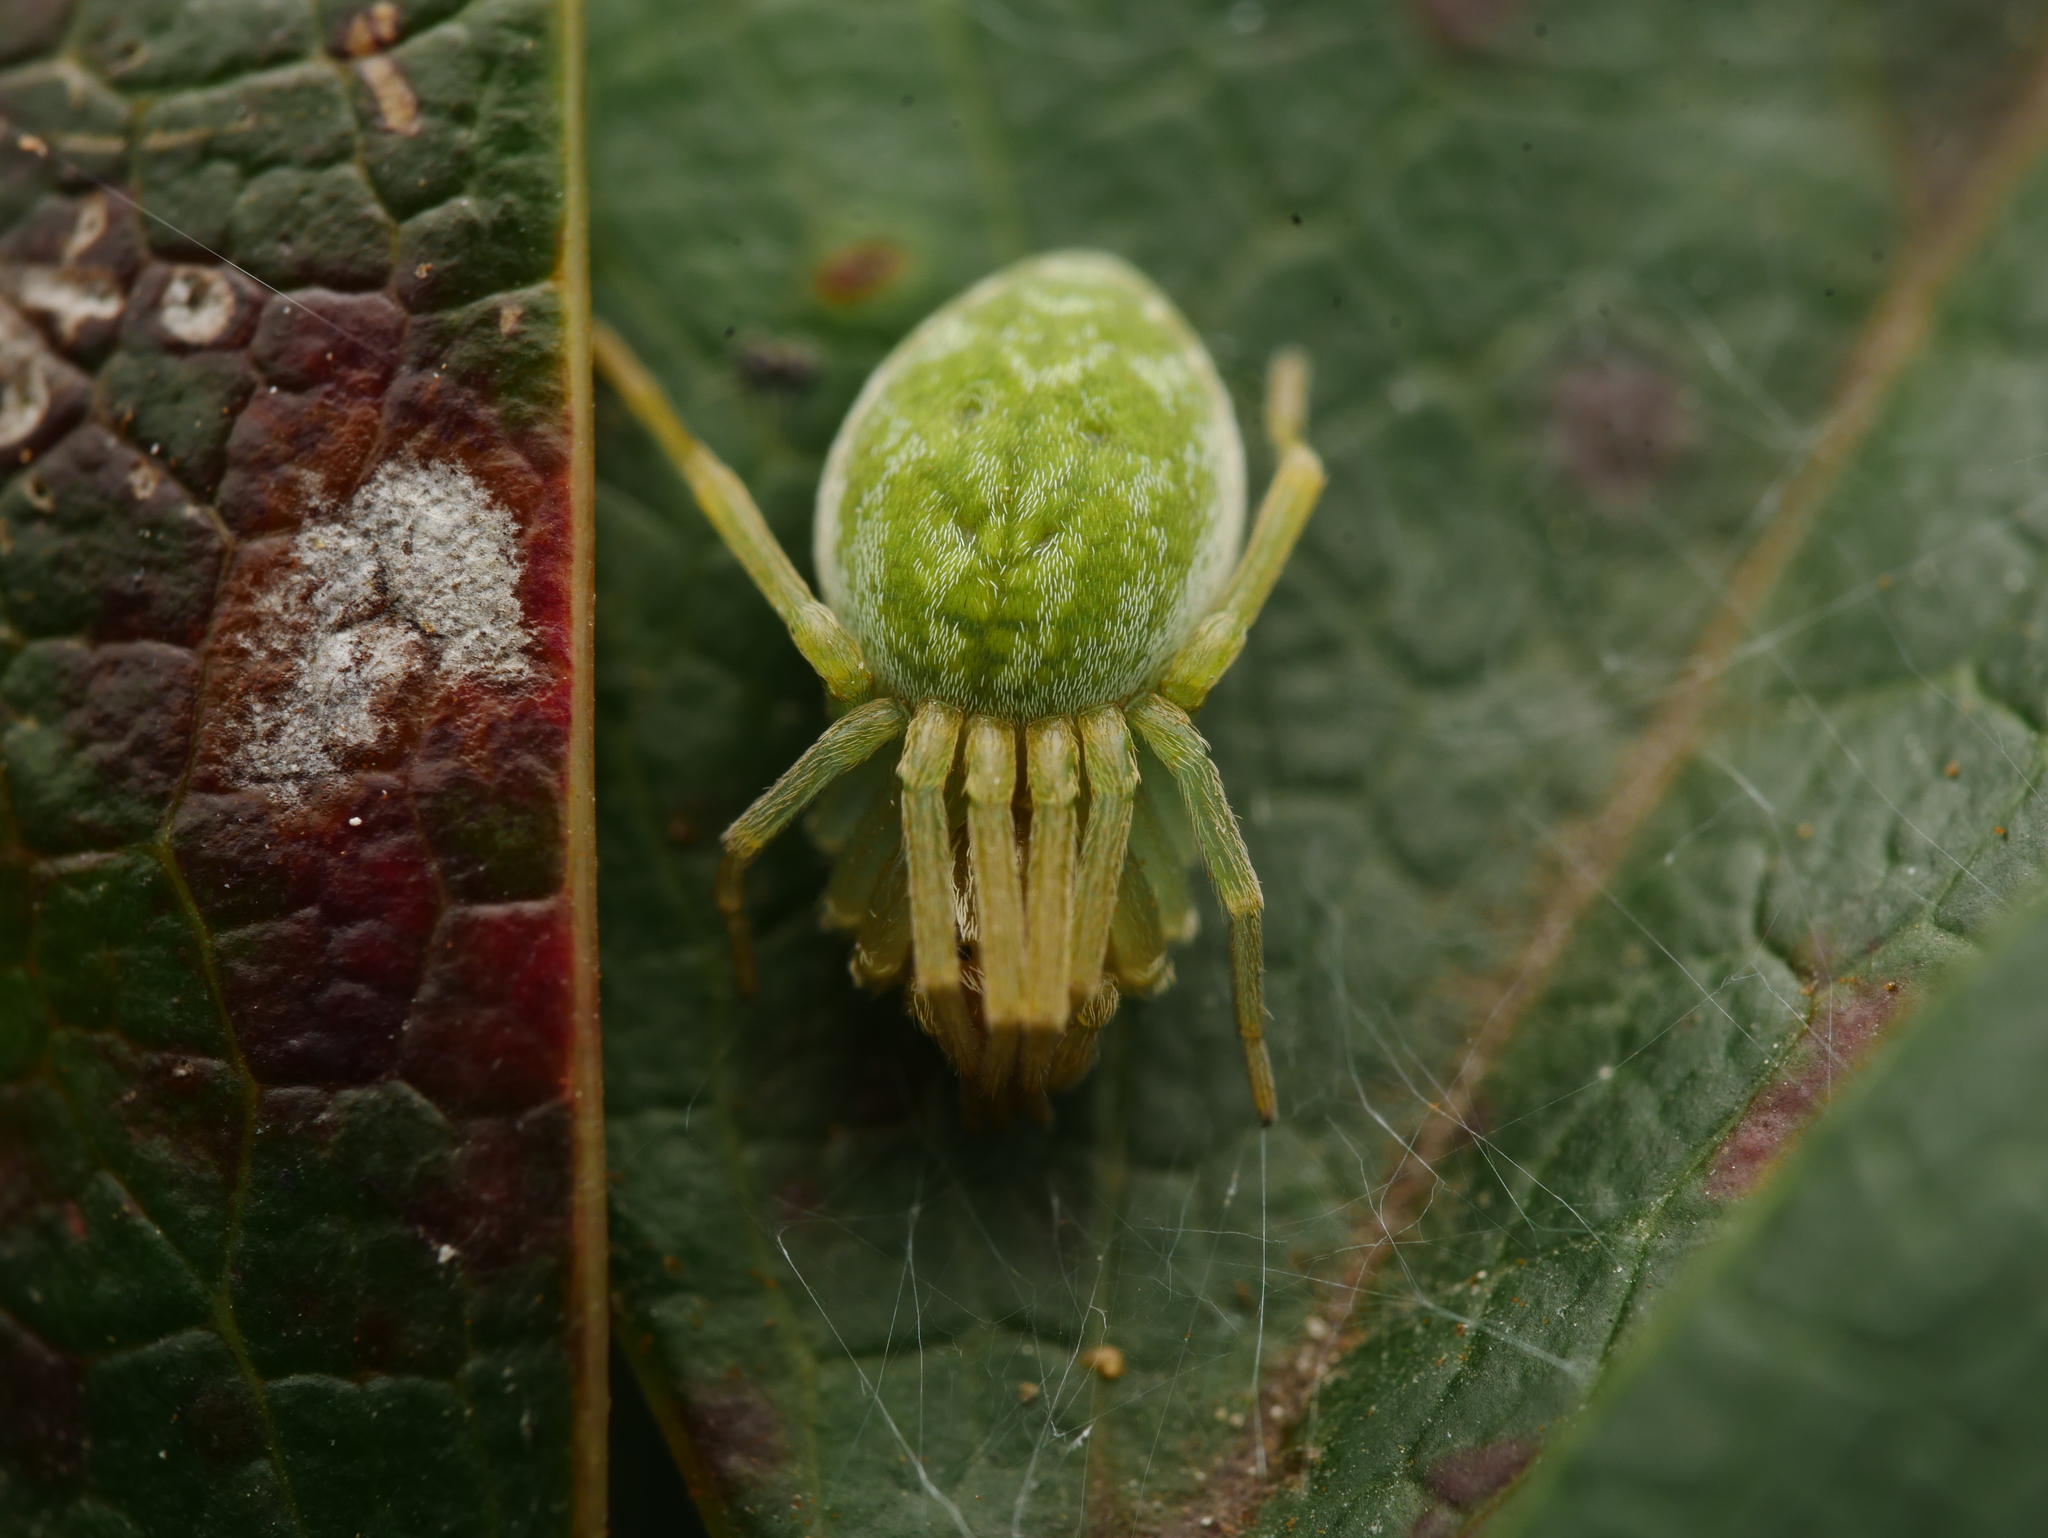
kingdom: Animalia
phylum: Arthropoda
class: Arachnida
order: Araneae
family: Dictynidae
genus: Nigma
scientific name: Nigma walckenaeri
